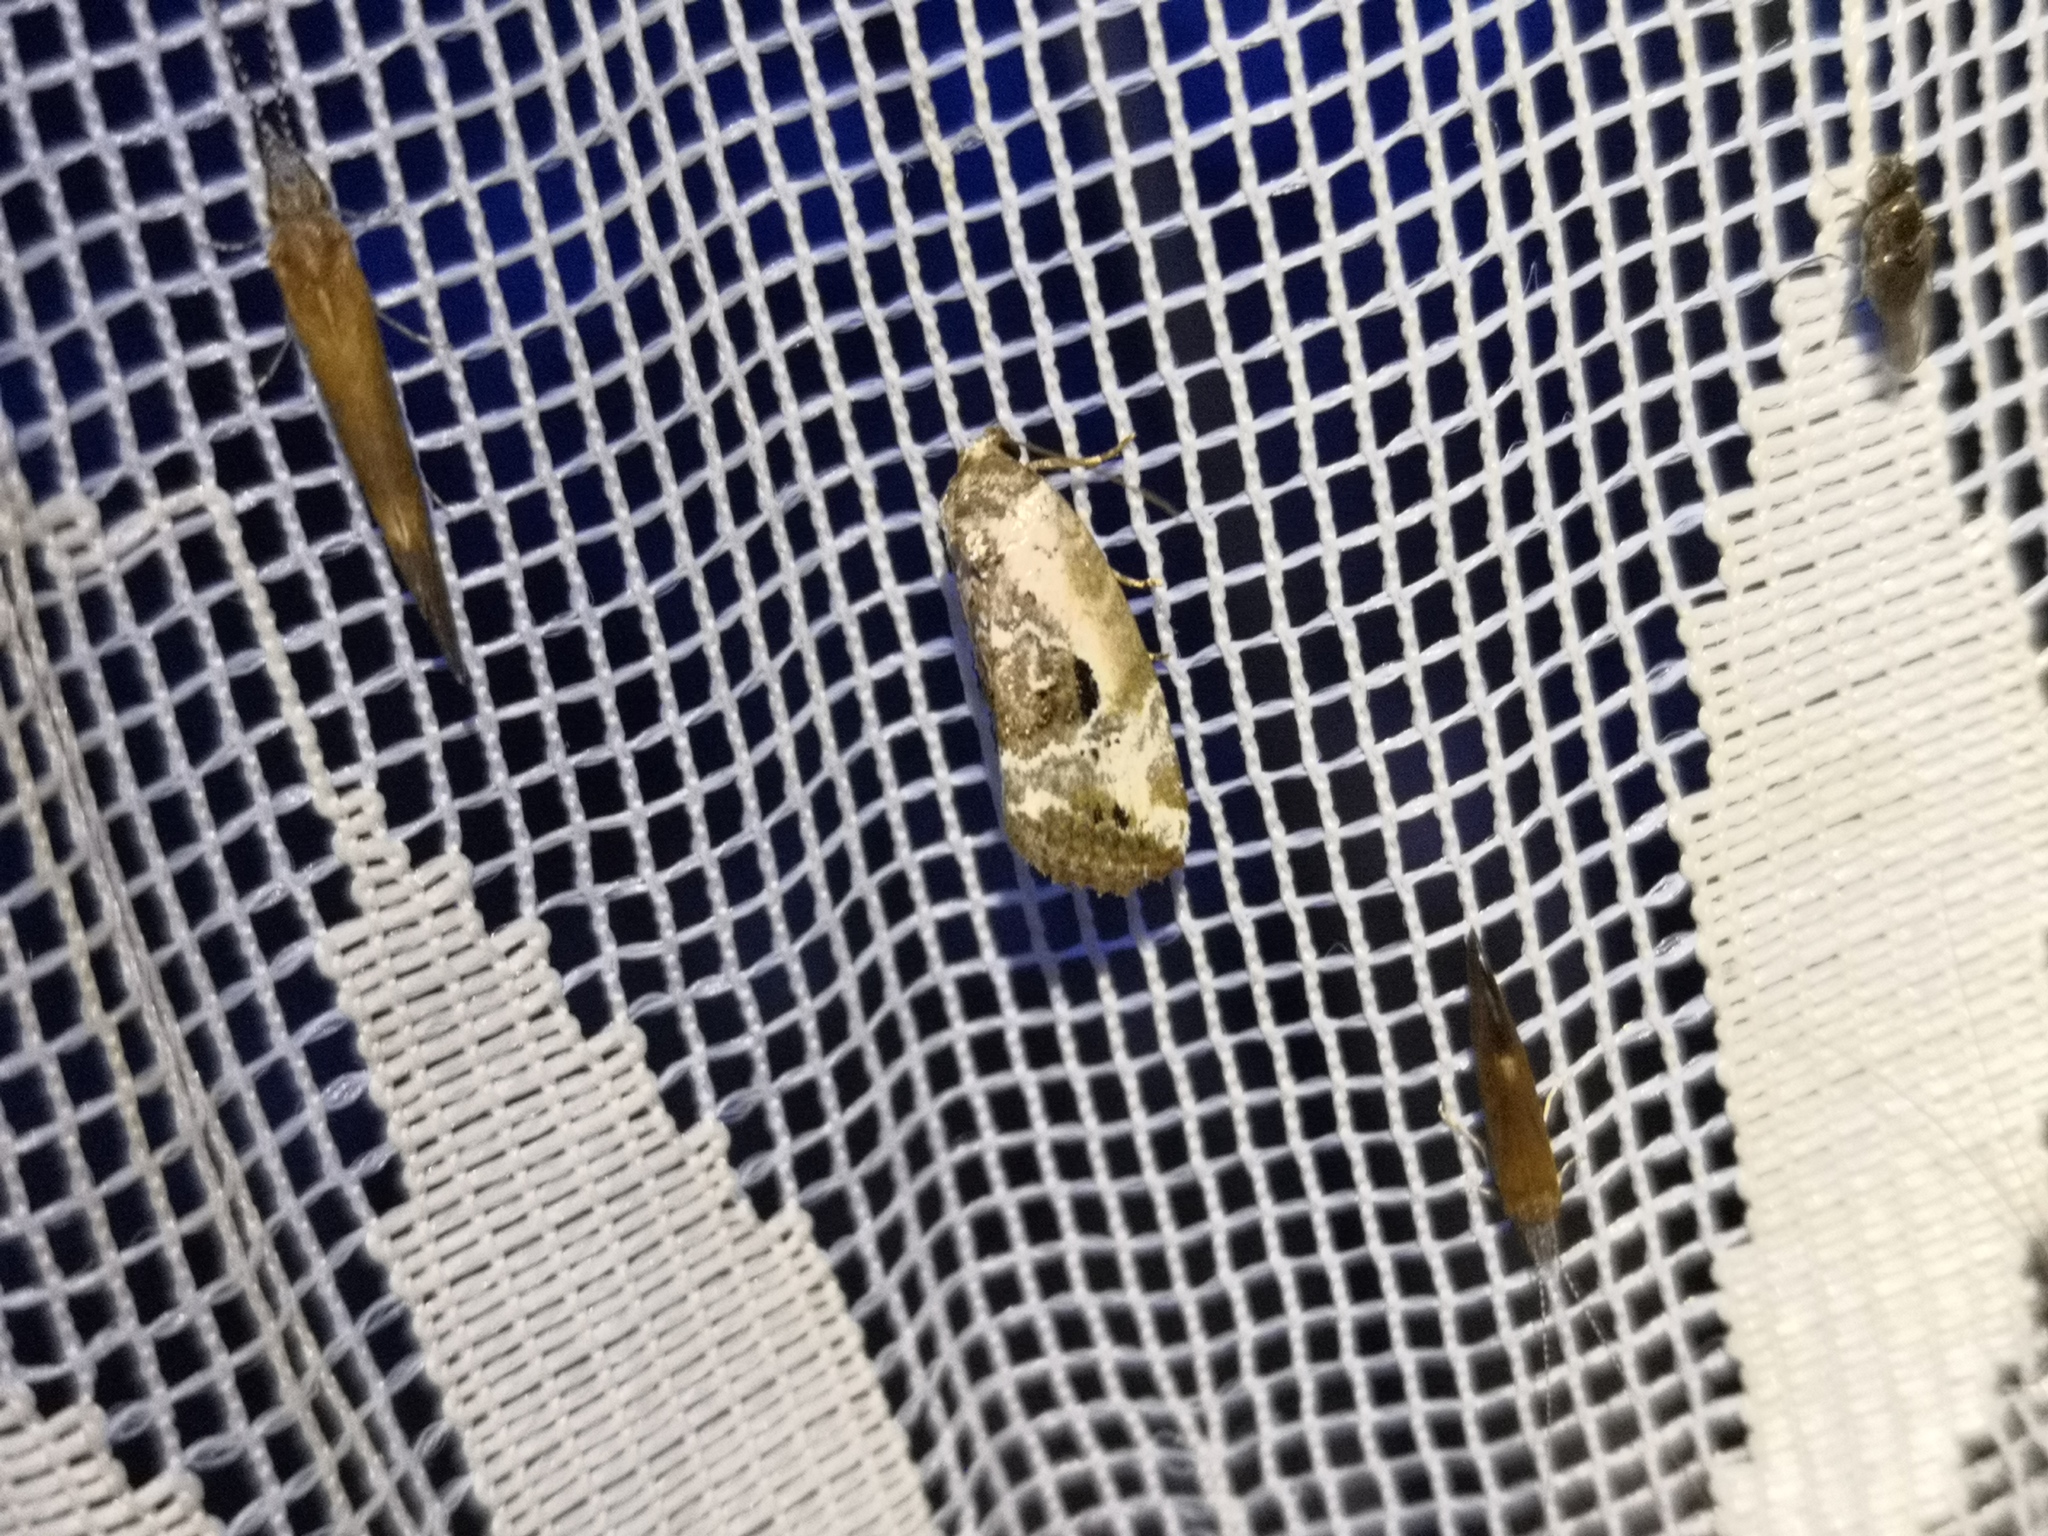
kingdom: Animalia
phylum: Arthropoda
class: Insecta
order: Lepidoptera
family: Noctuidae
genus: Elaphria
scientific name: Elaphria venustula
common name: Rosy marbled
